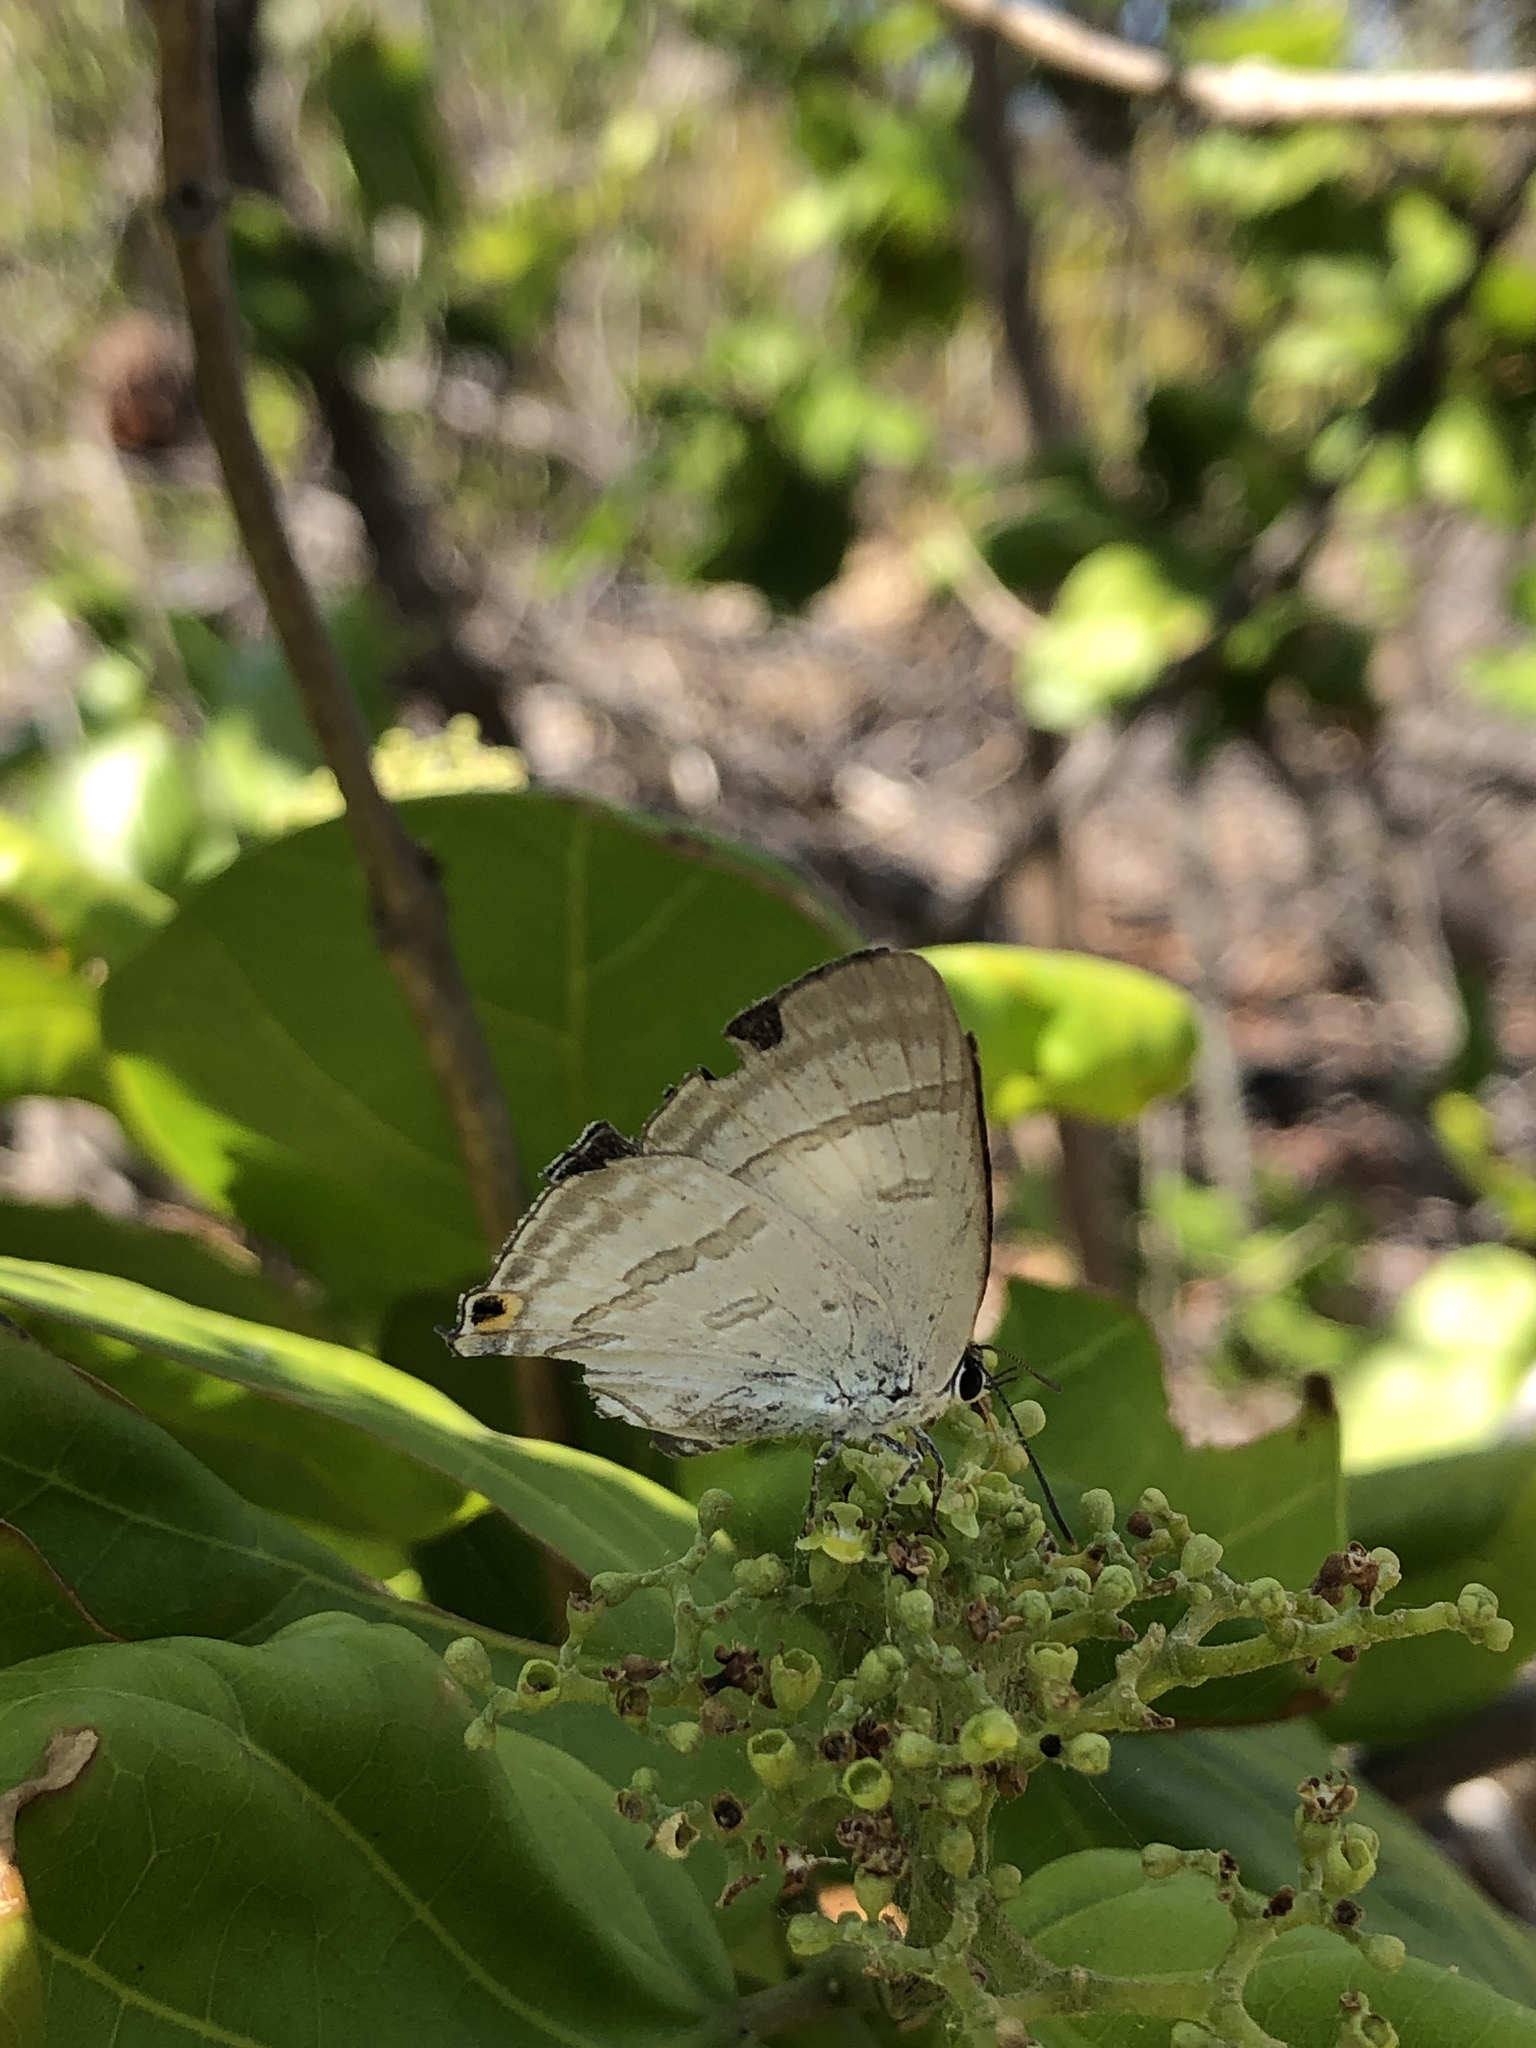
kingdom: Animalia
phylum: Arthropoda
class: Insecta
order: Lepidoptera
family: Lycaenidae
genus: Hypolycaena
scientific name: Hypolycaena phorbas
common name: Black-spotted flash
